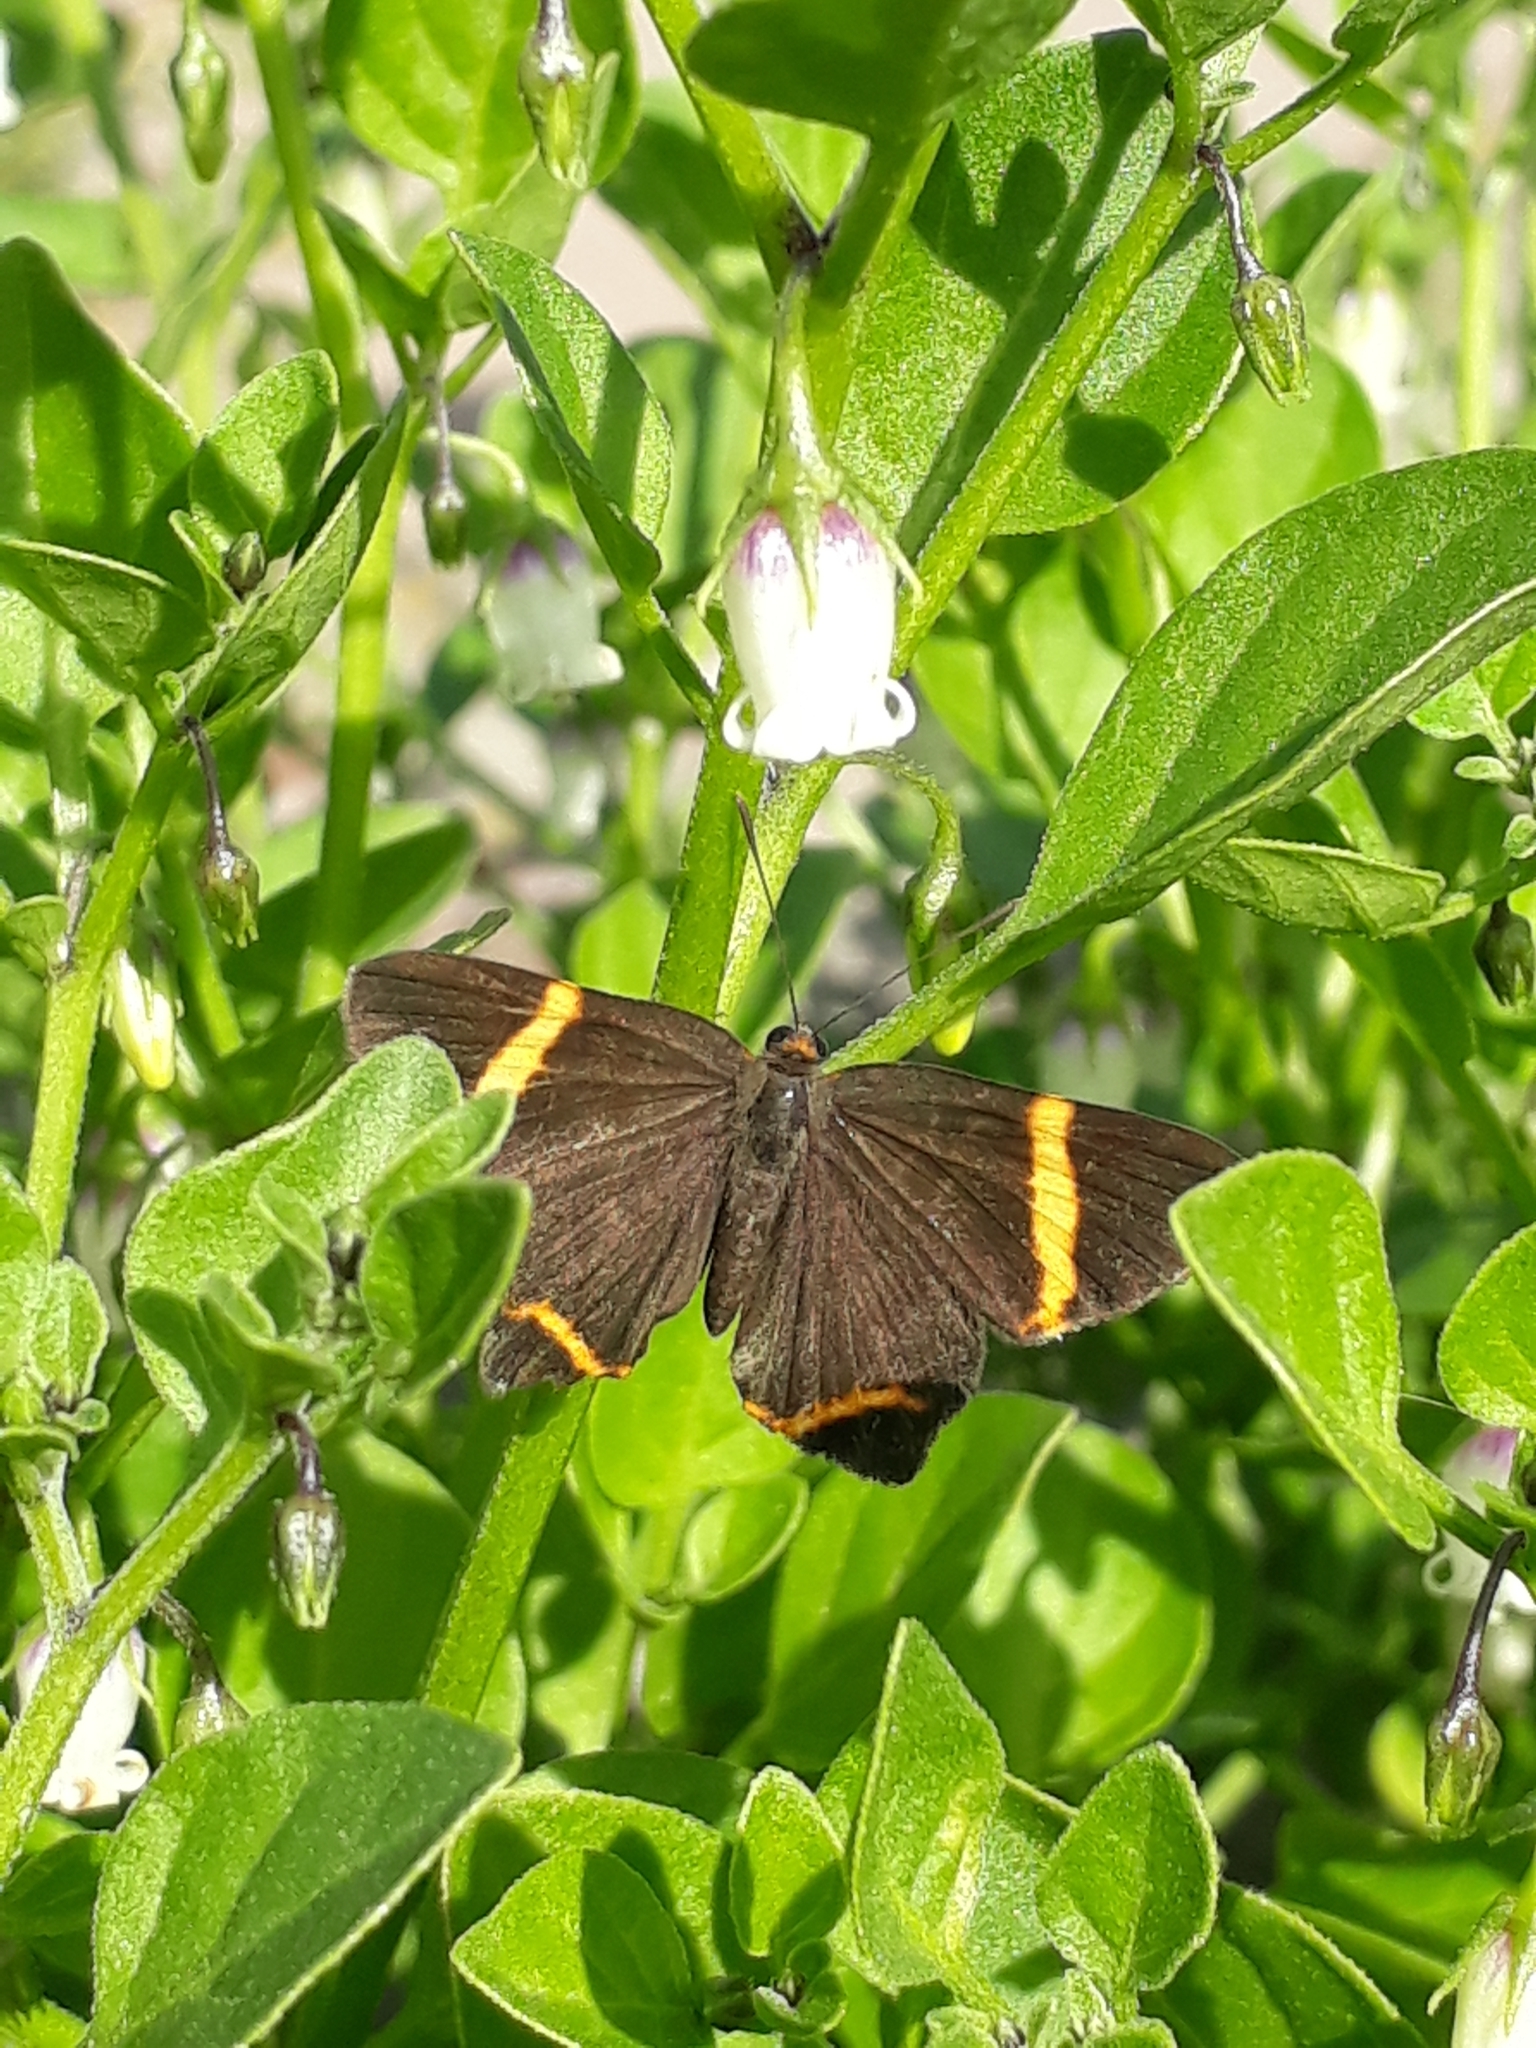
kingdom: Animalia
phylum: Arthropoda
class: Insecta
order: Lepidoptera
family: Riodinidae
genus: Riodina
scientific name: Riodina lysippoides
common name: Little dancer metalmark
